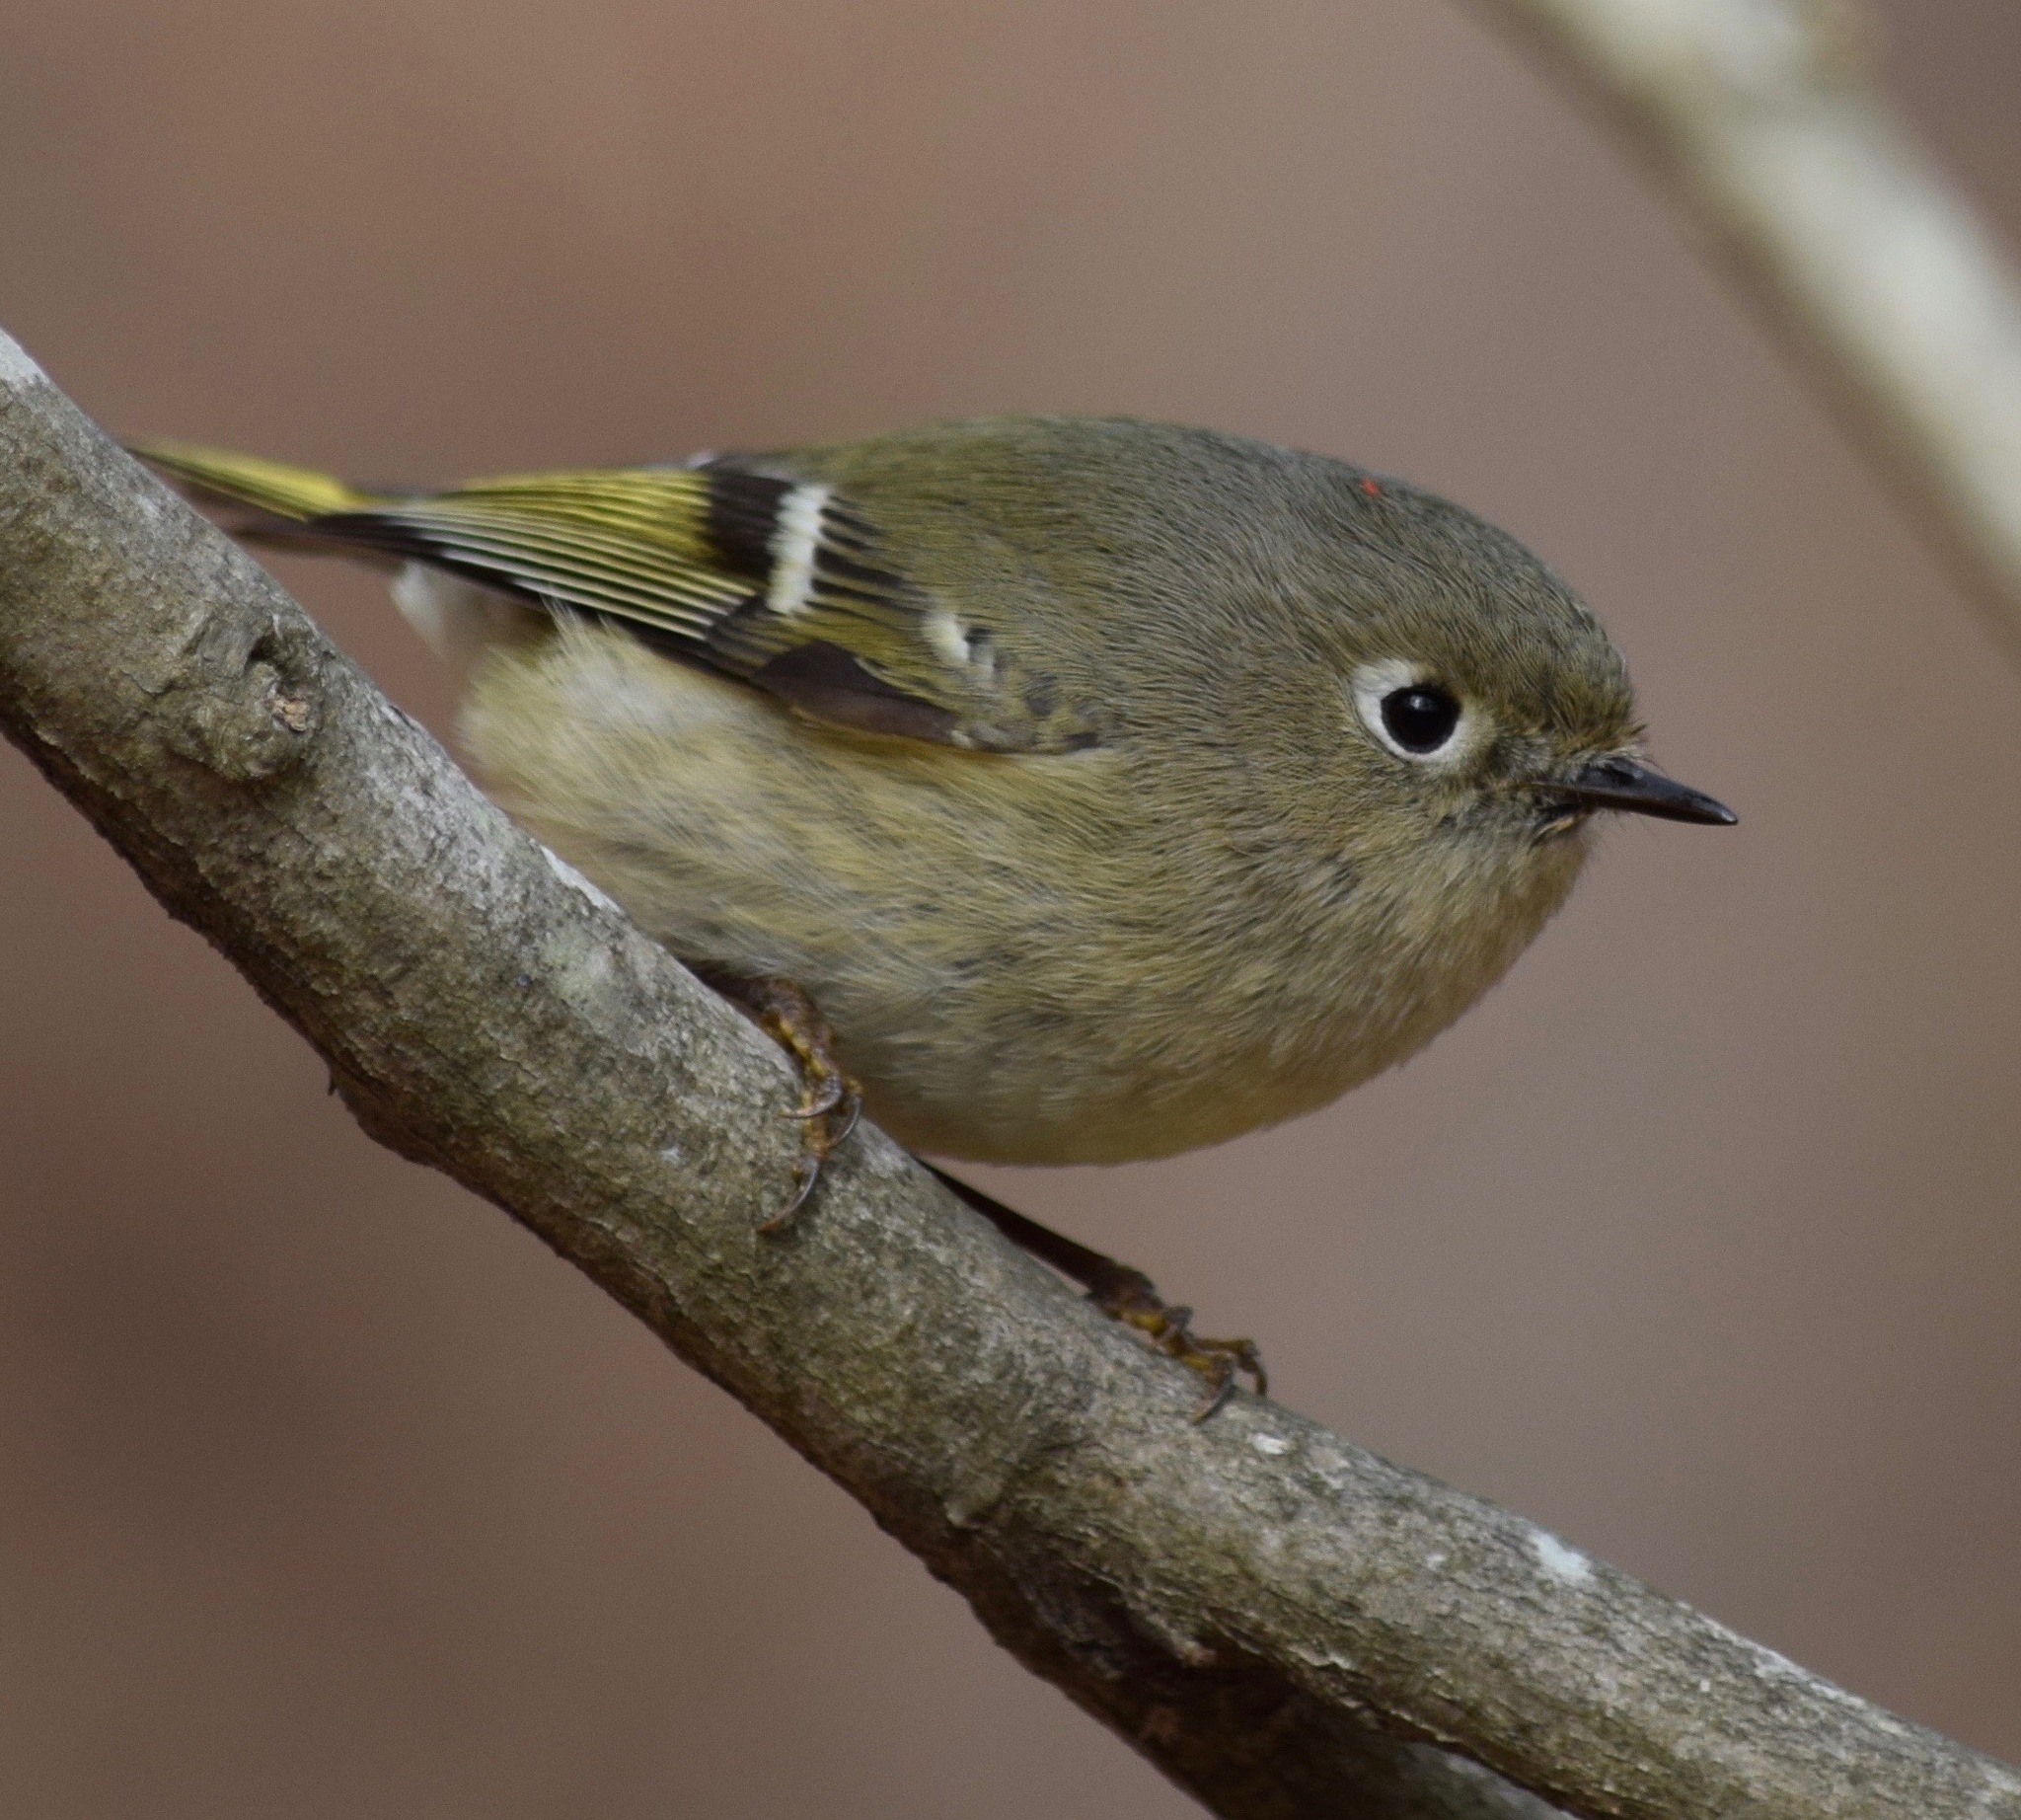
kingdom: Animalia
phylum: Chordata
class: Aves
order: Passeriformes
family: Regulidae
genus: Regulus
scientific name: Regulus calendula
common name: Ruby-crowned kinglet
